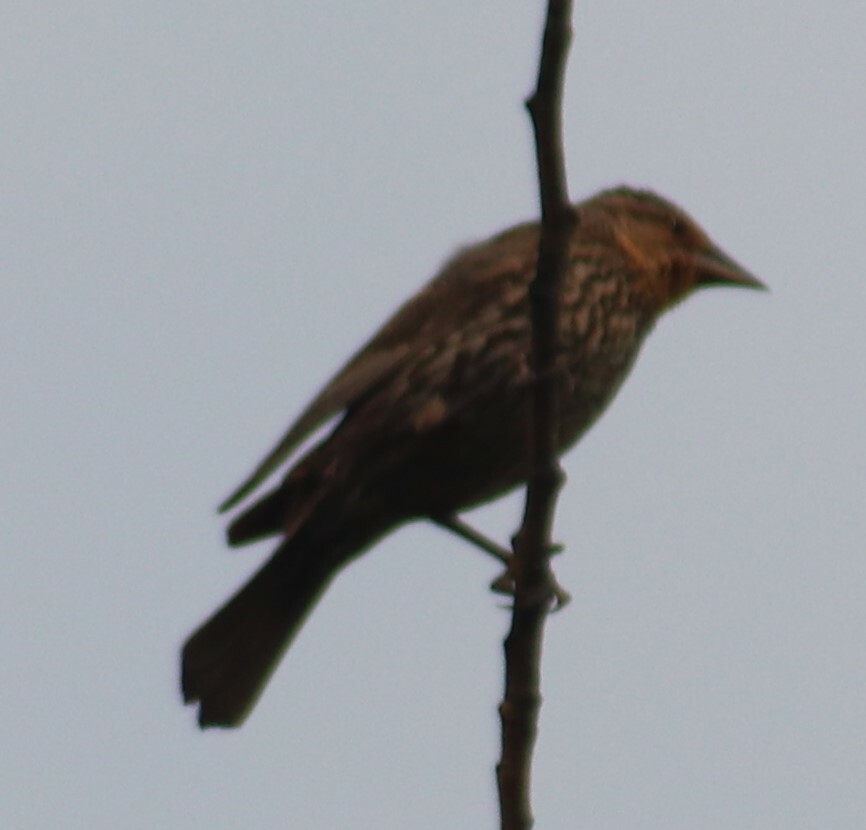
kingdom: Animalia
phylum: Chordata
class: Aves
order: Passeriformes
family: Icteridae
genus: Agelaius
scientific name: Agelaius phoeniceus
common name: Red-winged blackbird
